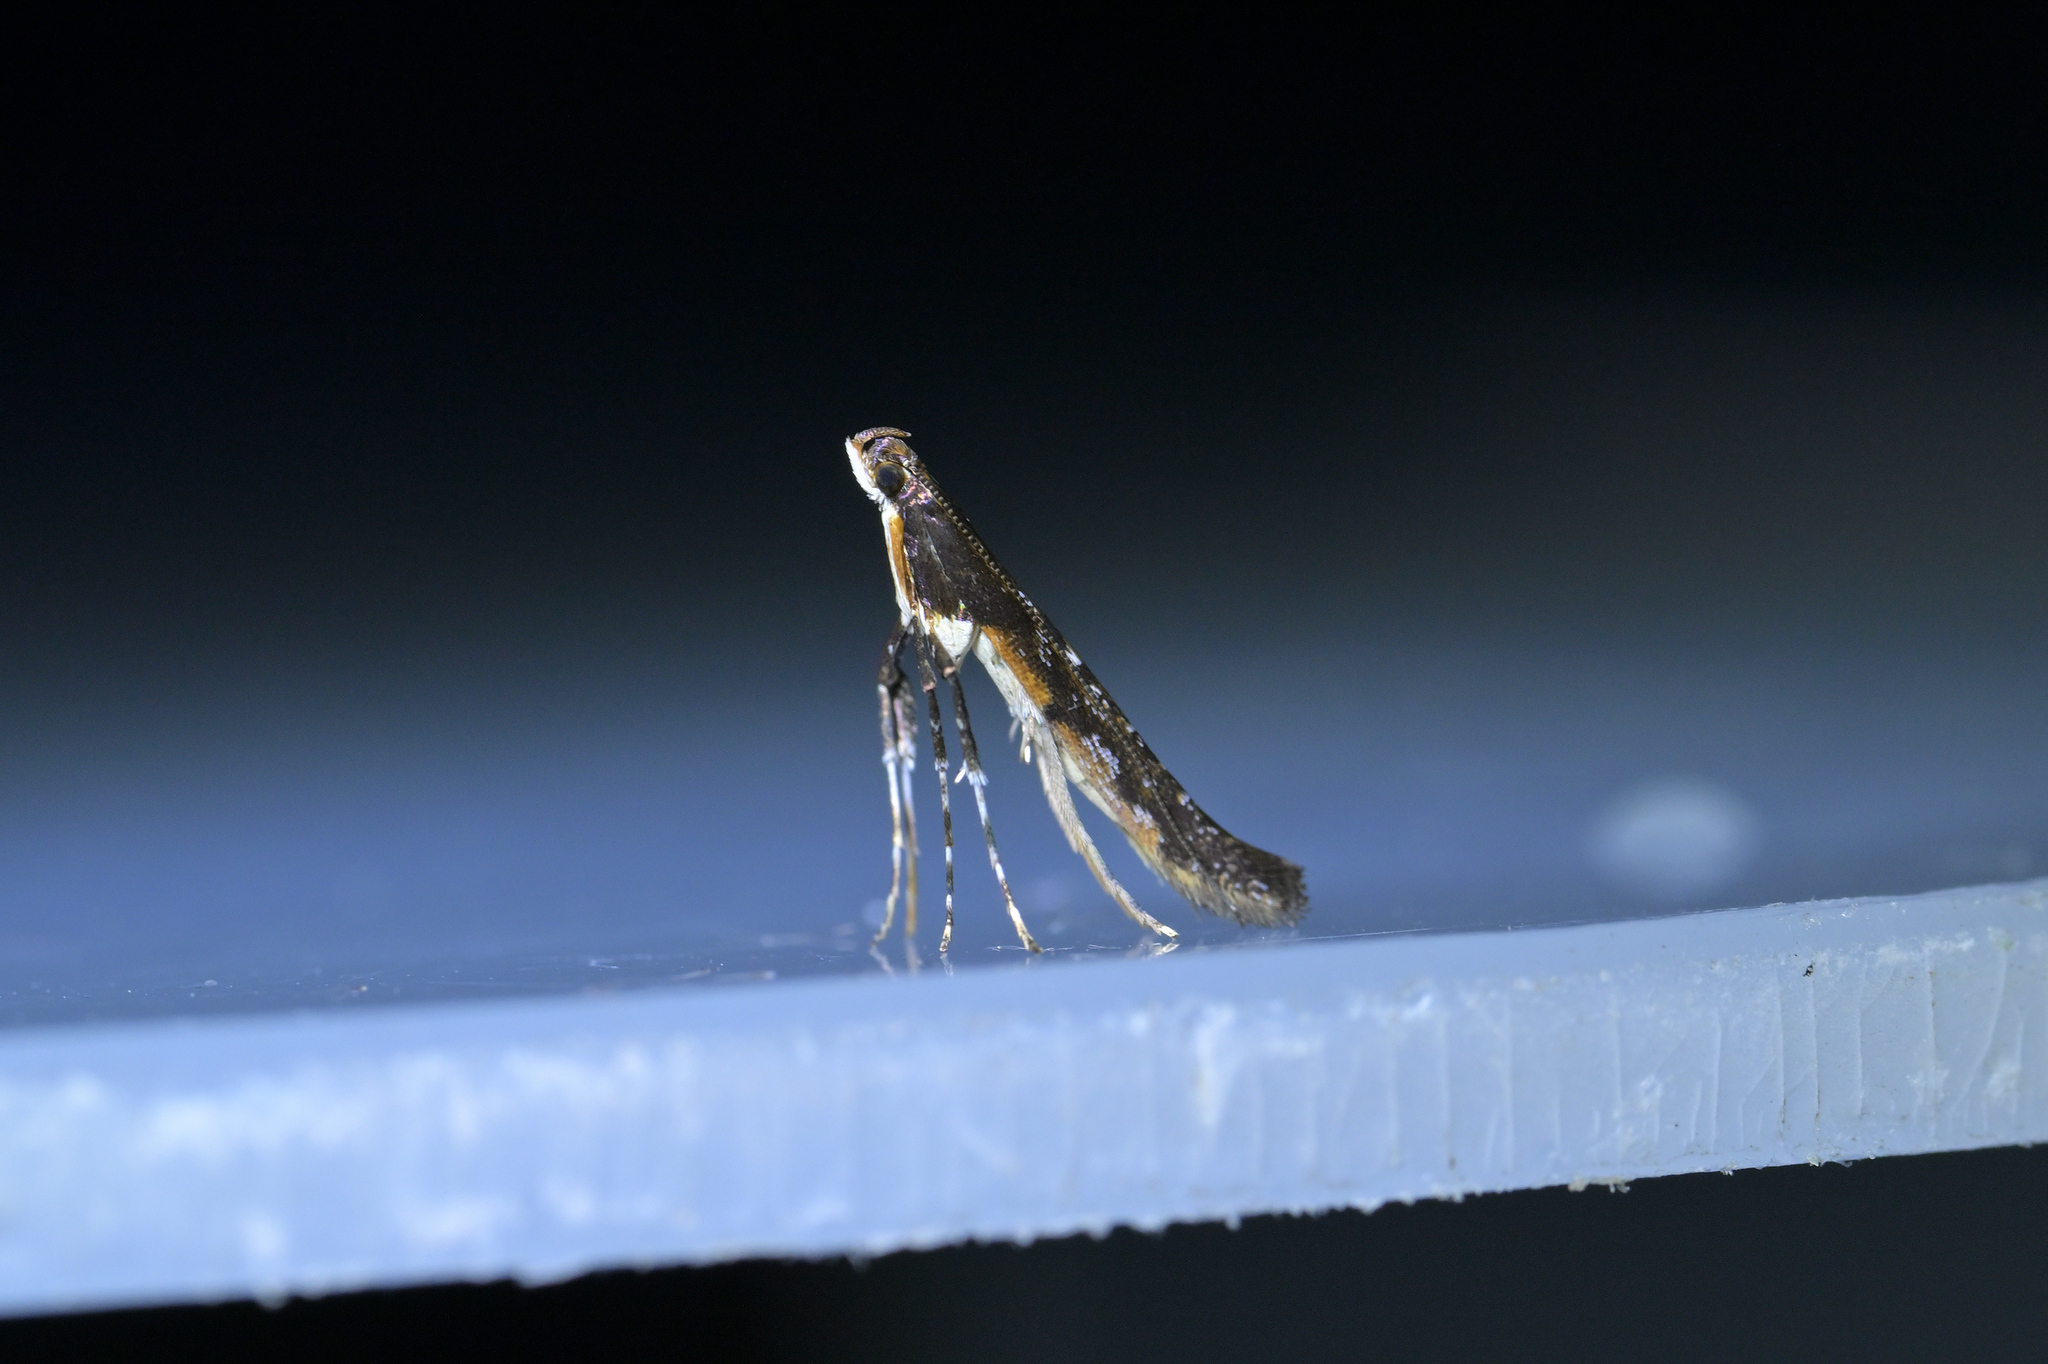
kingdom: Animalia
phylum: Arthropoda
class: Insecta
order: Lepidoptera
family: Gracillariidae
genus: Caloptilia
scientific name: Caloptilia linearis
